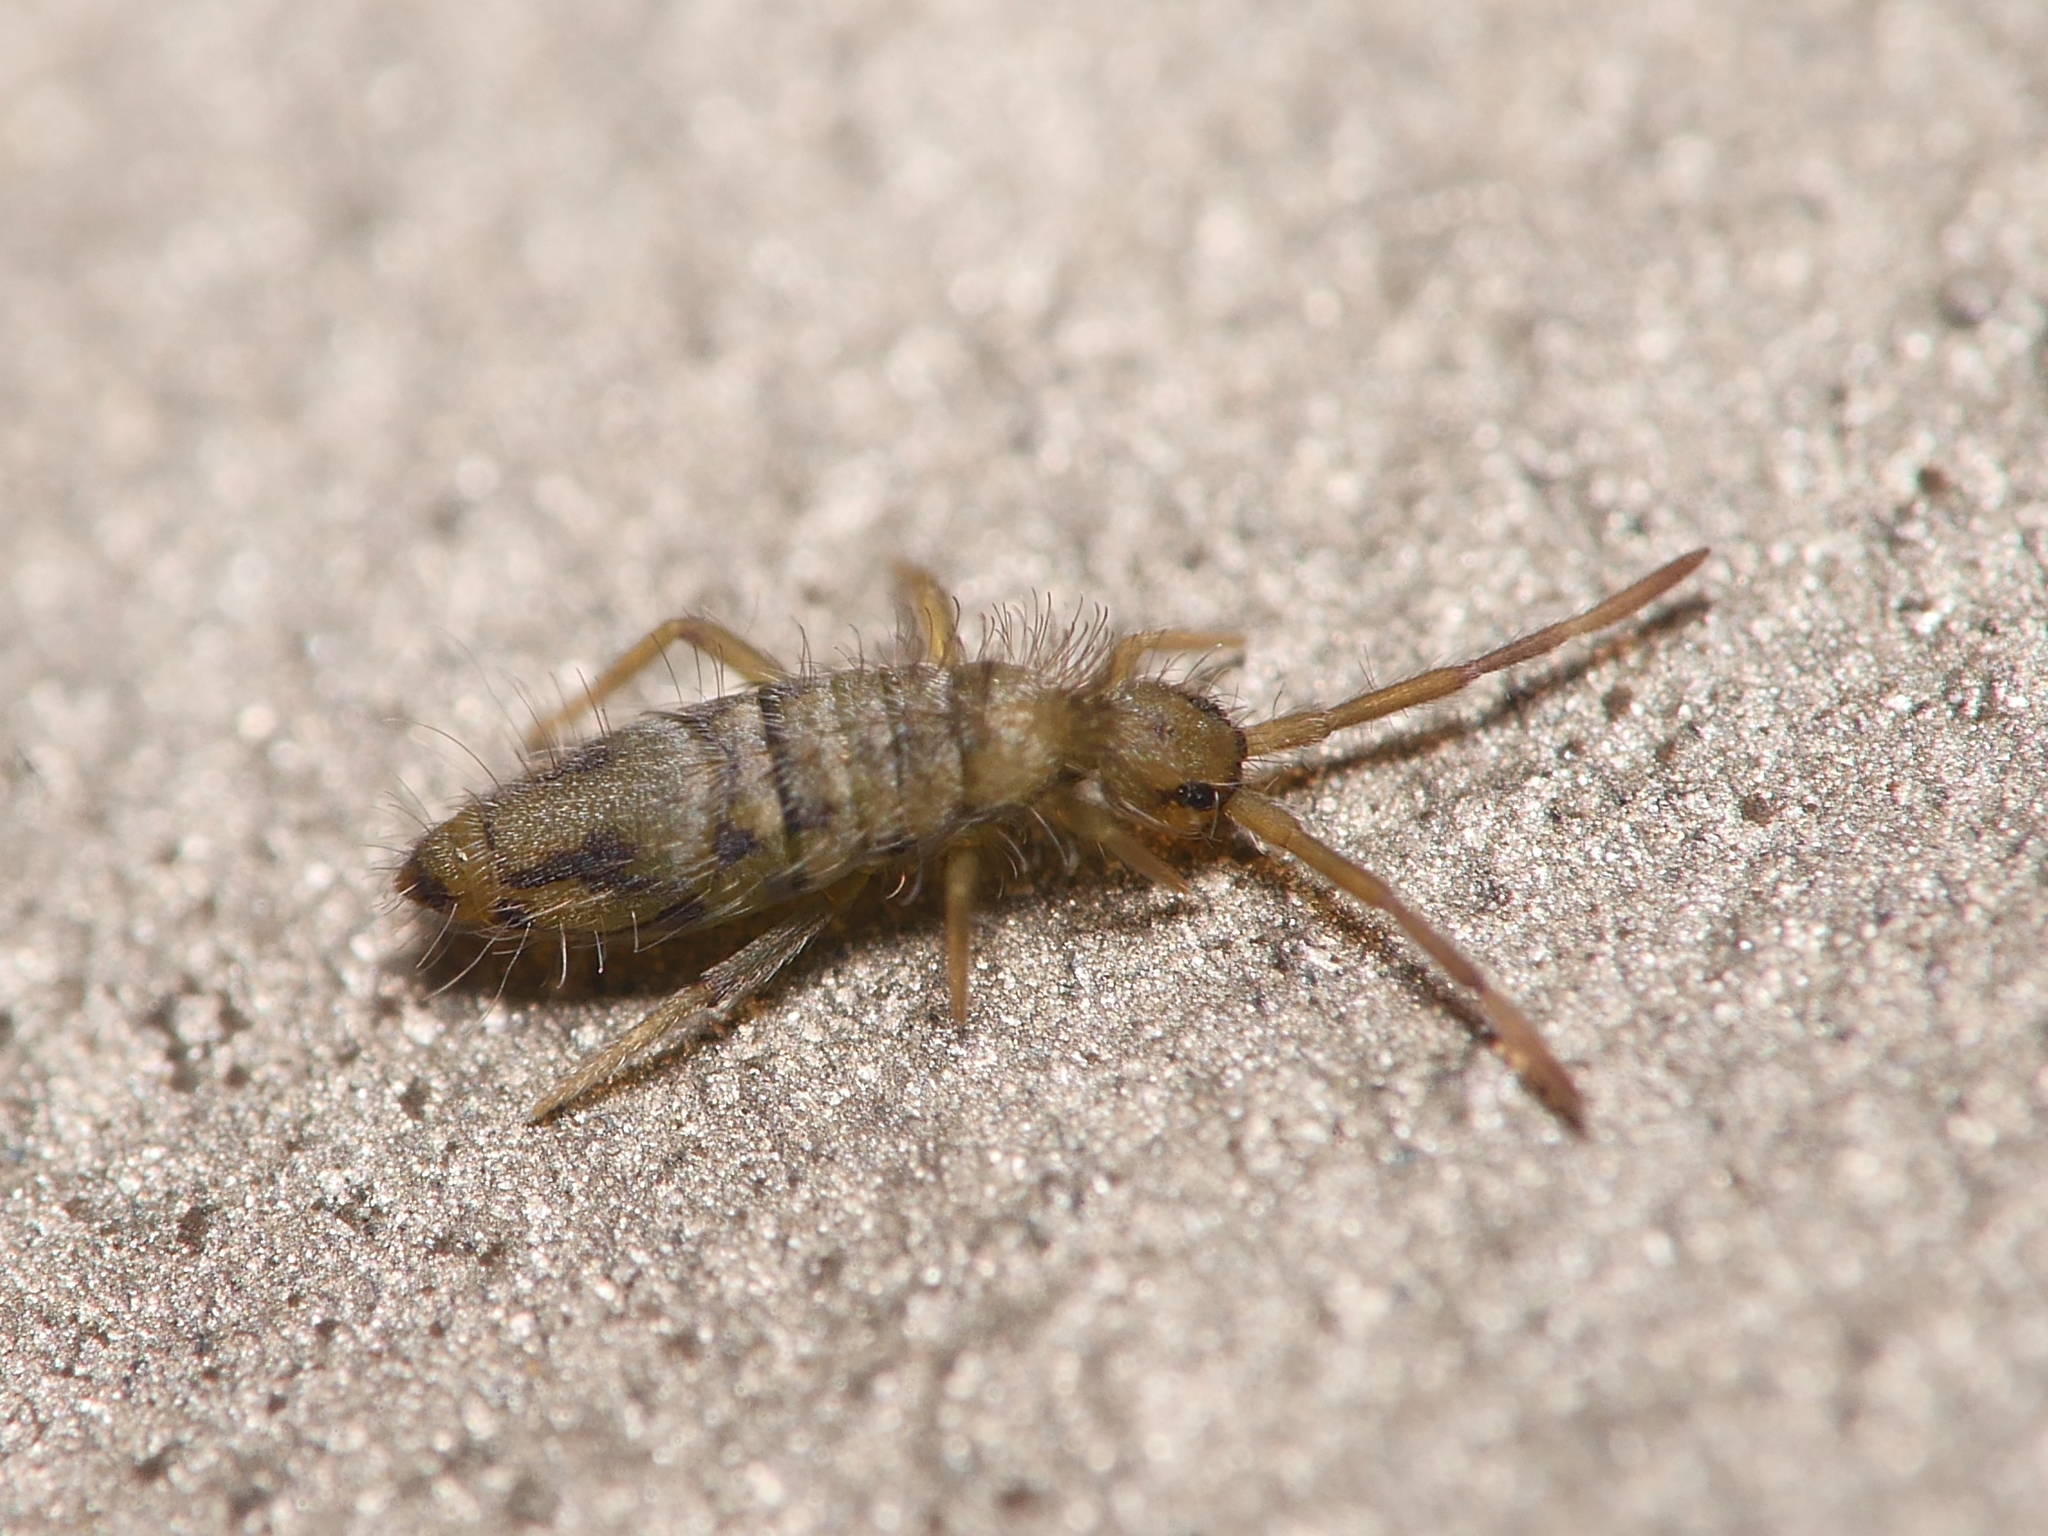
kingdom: Animalia
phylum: Arthropoda
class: Collembola
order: Entomobryomorpha
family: Entomobryidae
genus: Entomobrya
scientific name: Entomobrya nivalis
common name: Cosmopolitan springtail
